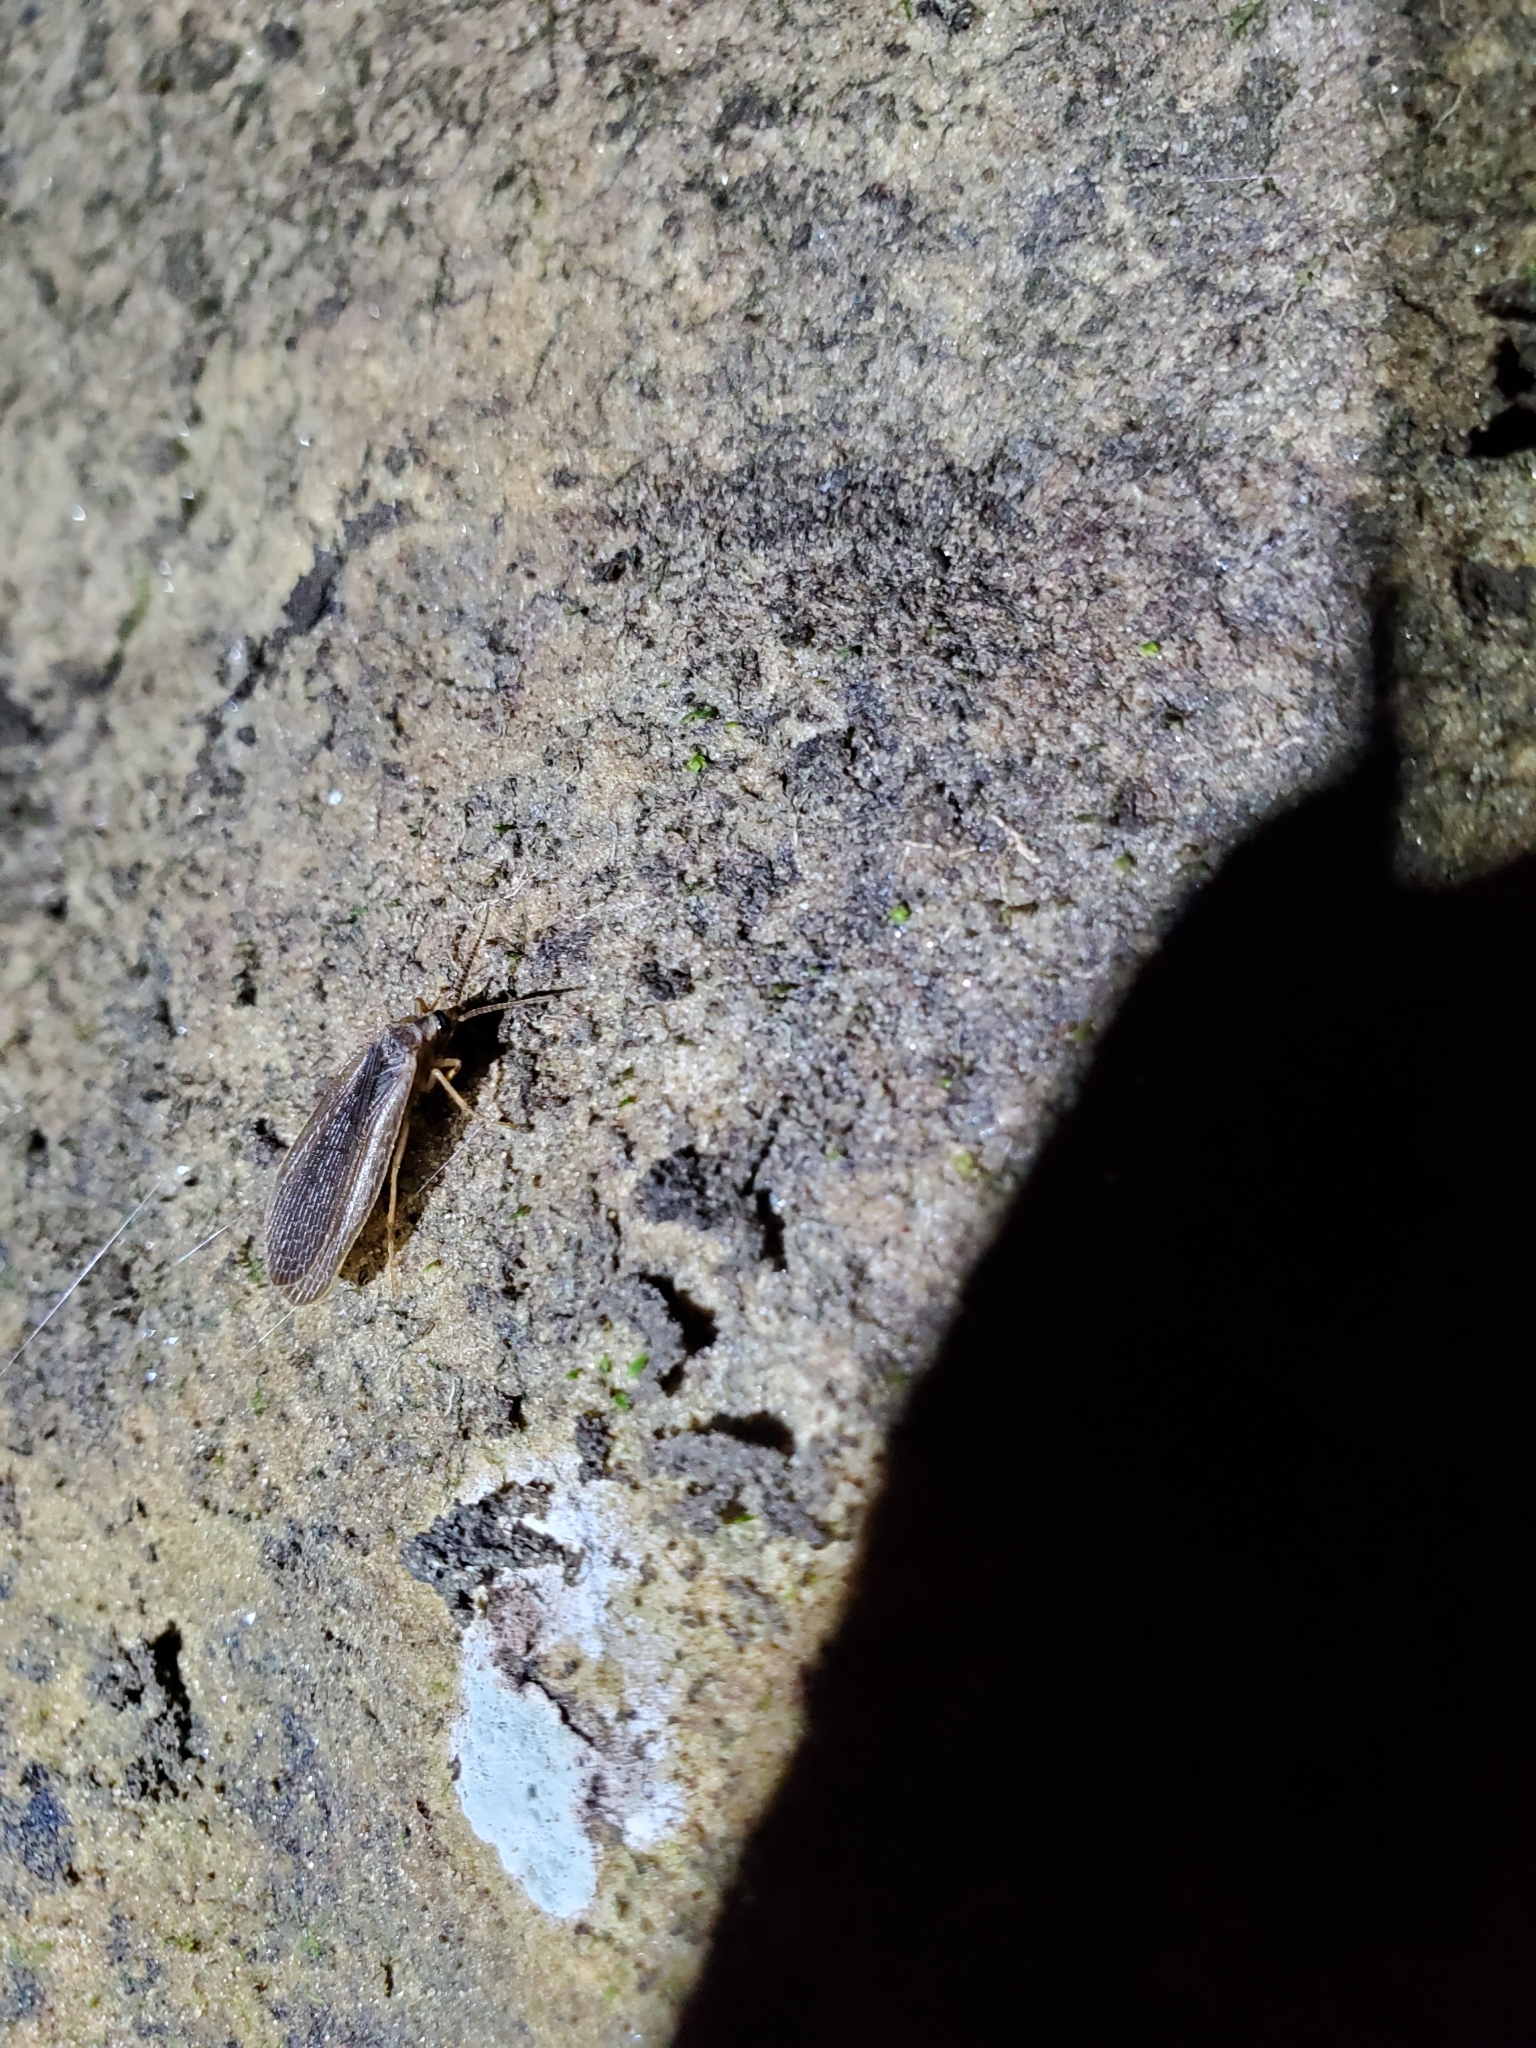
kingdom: Animalia
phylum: Arthropoda
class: Insecta
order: Mecoptera
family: Meropeidae
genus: Merope
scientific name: Merope tuber
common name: Forcepfly
